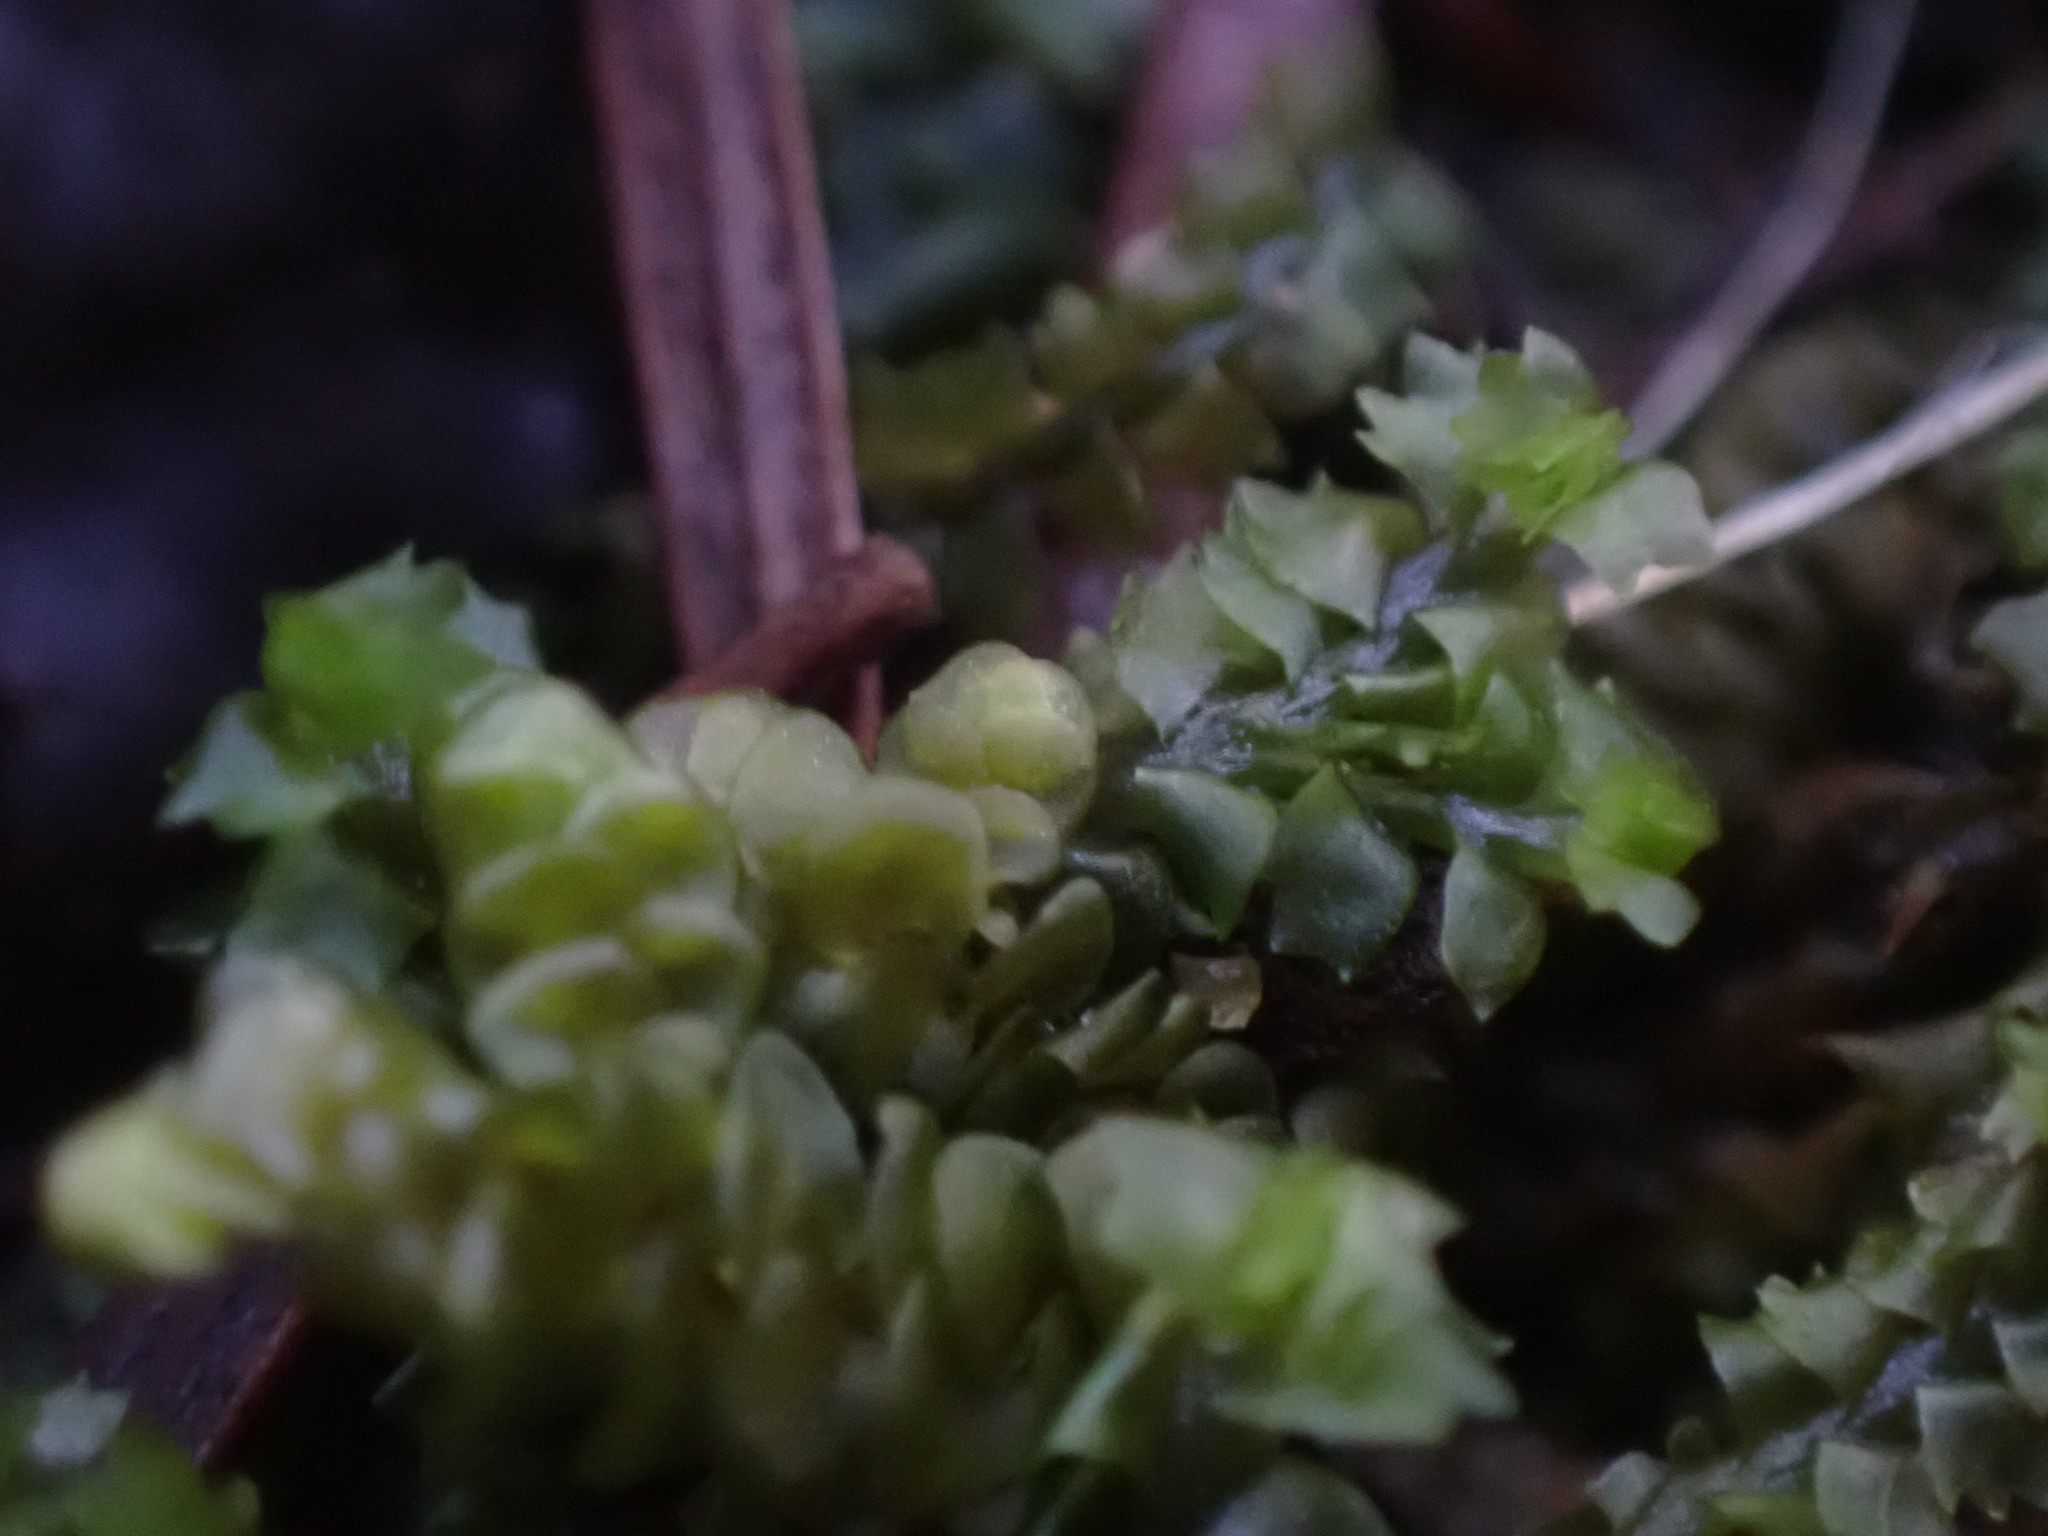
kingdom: Plantae
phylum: Marchantiophyta
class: Jungermanniopsida
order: Jungermanniales
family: Anastrophyllaceae
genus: Barbilophozia
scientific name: Barbilophozia barbata
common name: Bearded pawwort
